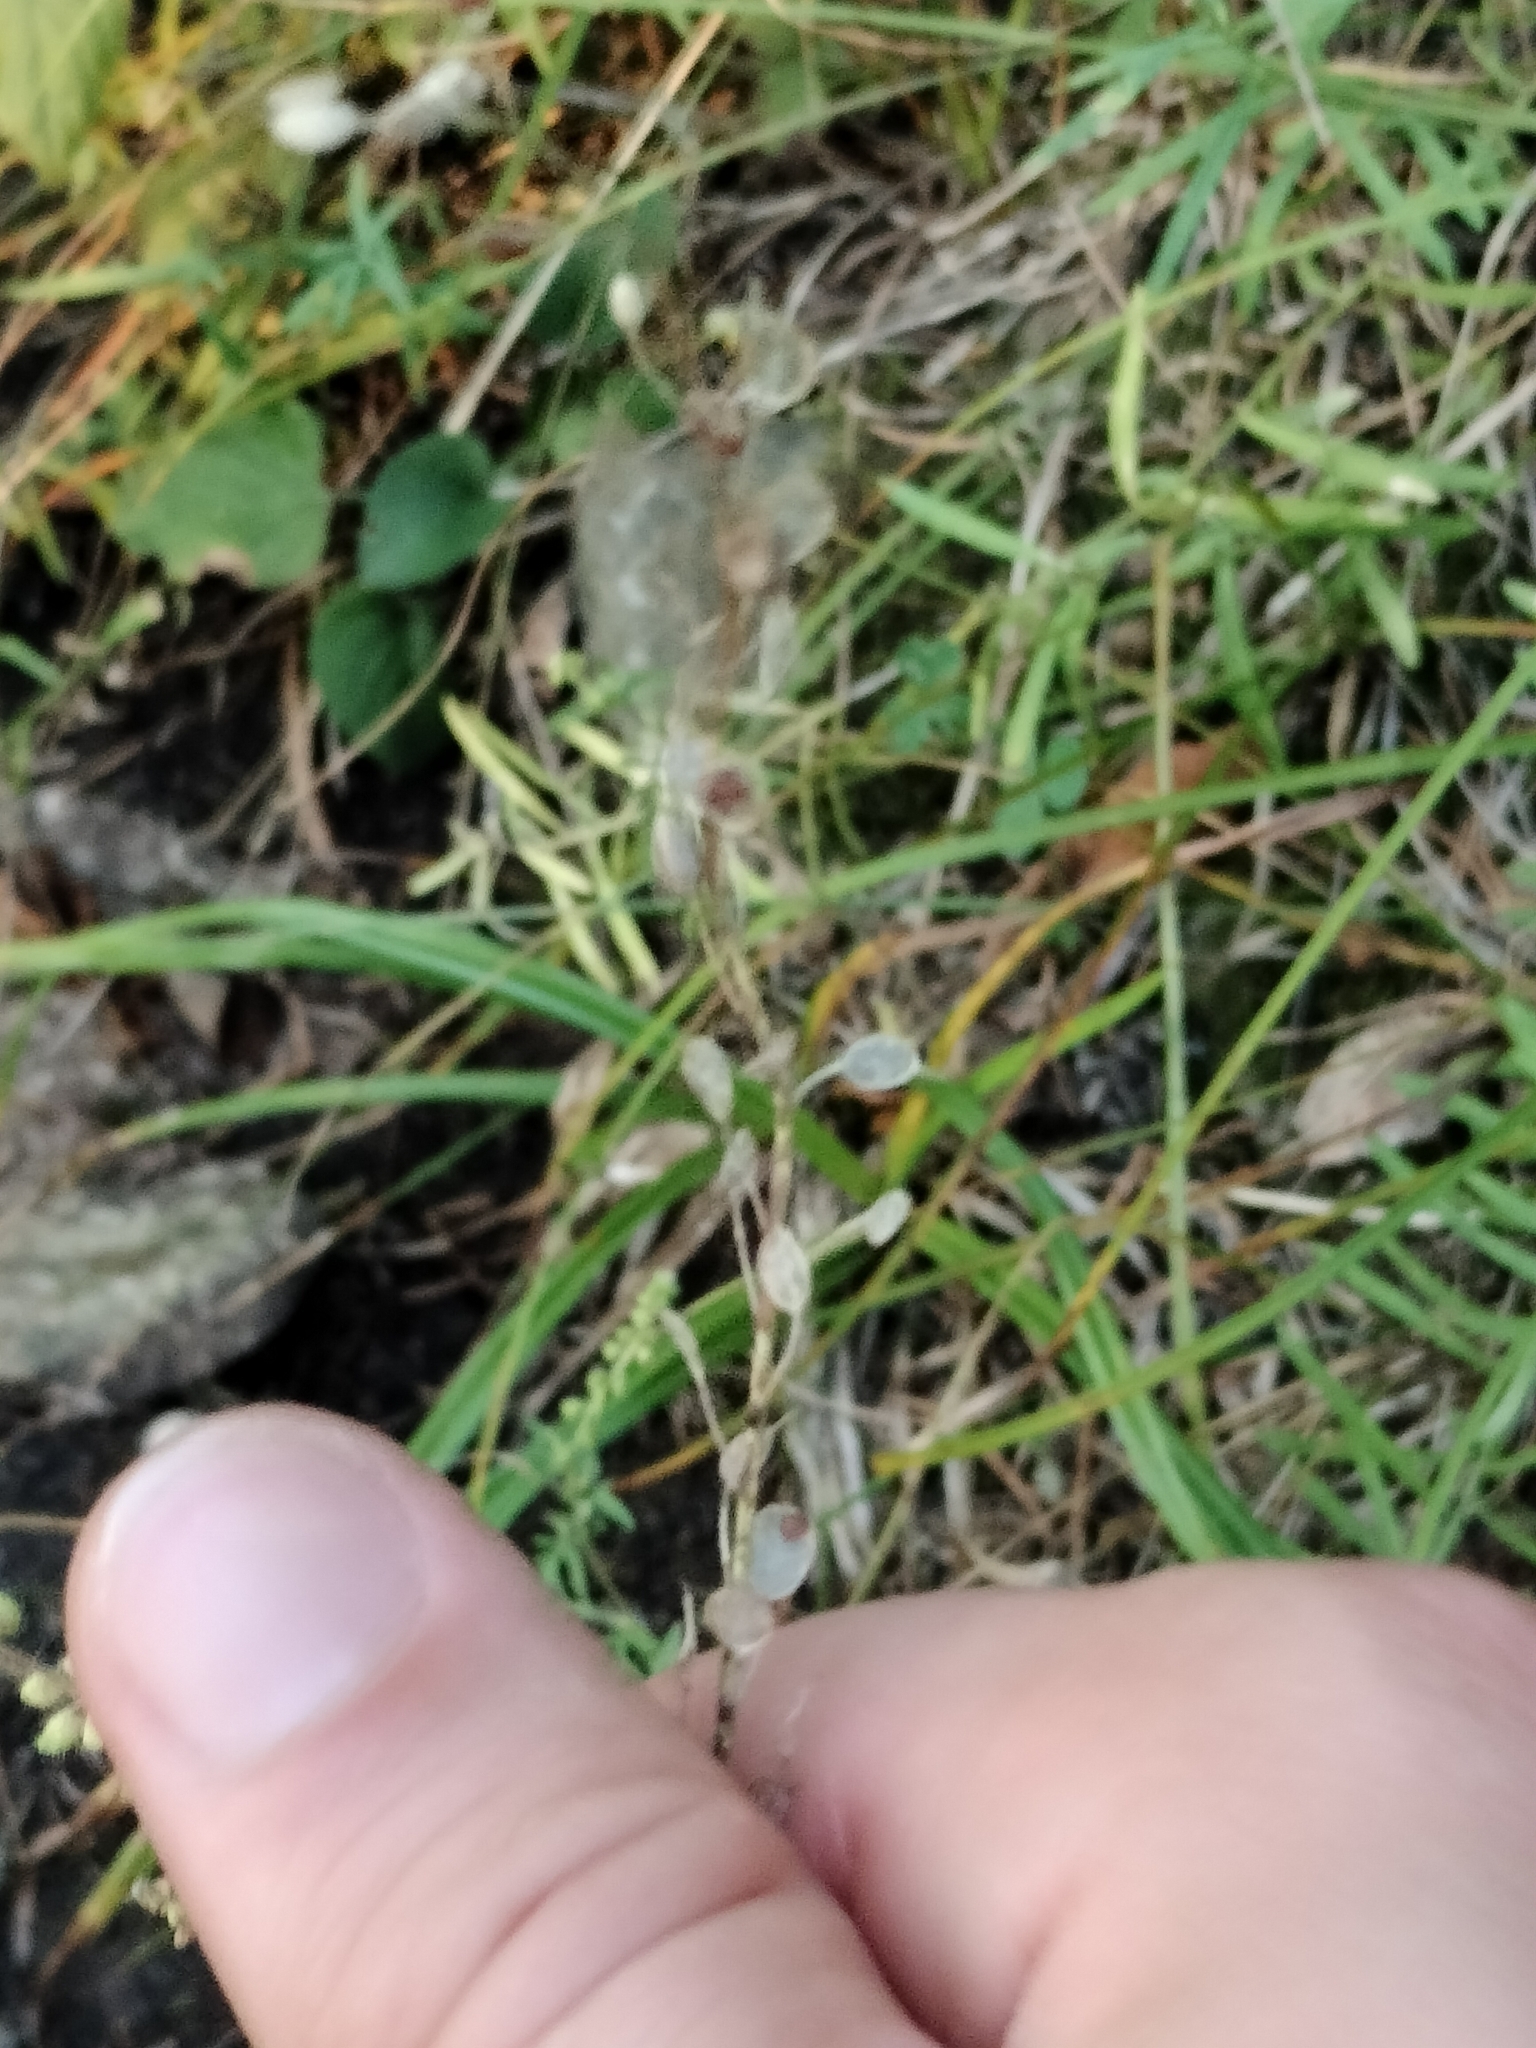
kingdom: Plantae
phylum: Tracheophyta
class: Magnoliopsida
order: Brassicales
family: Brassicaceae
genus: Berteroa
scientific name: Berteroa incana
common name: Hoary alison
